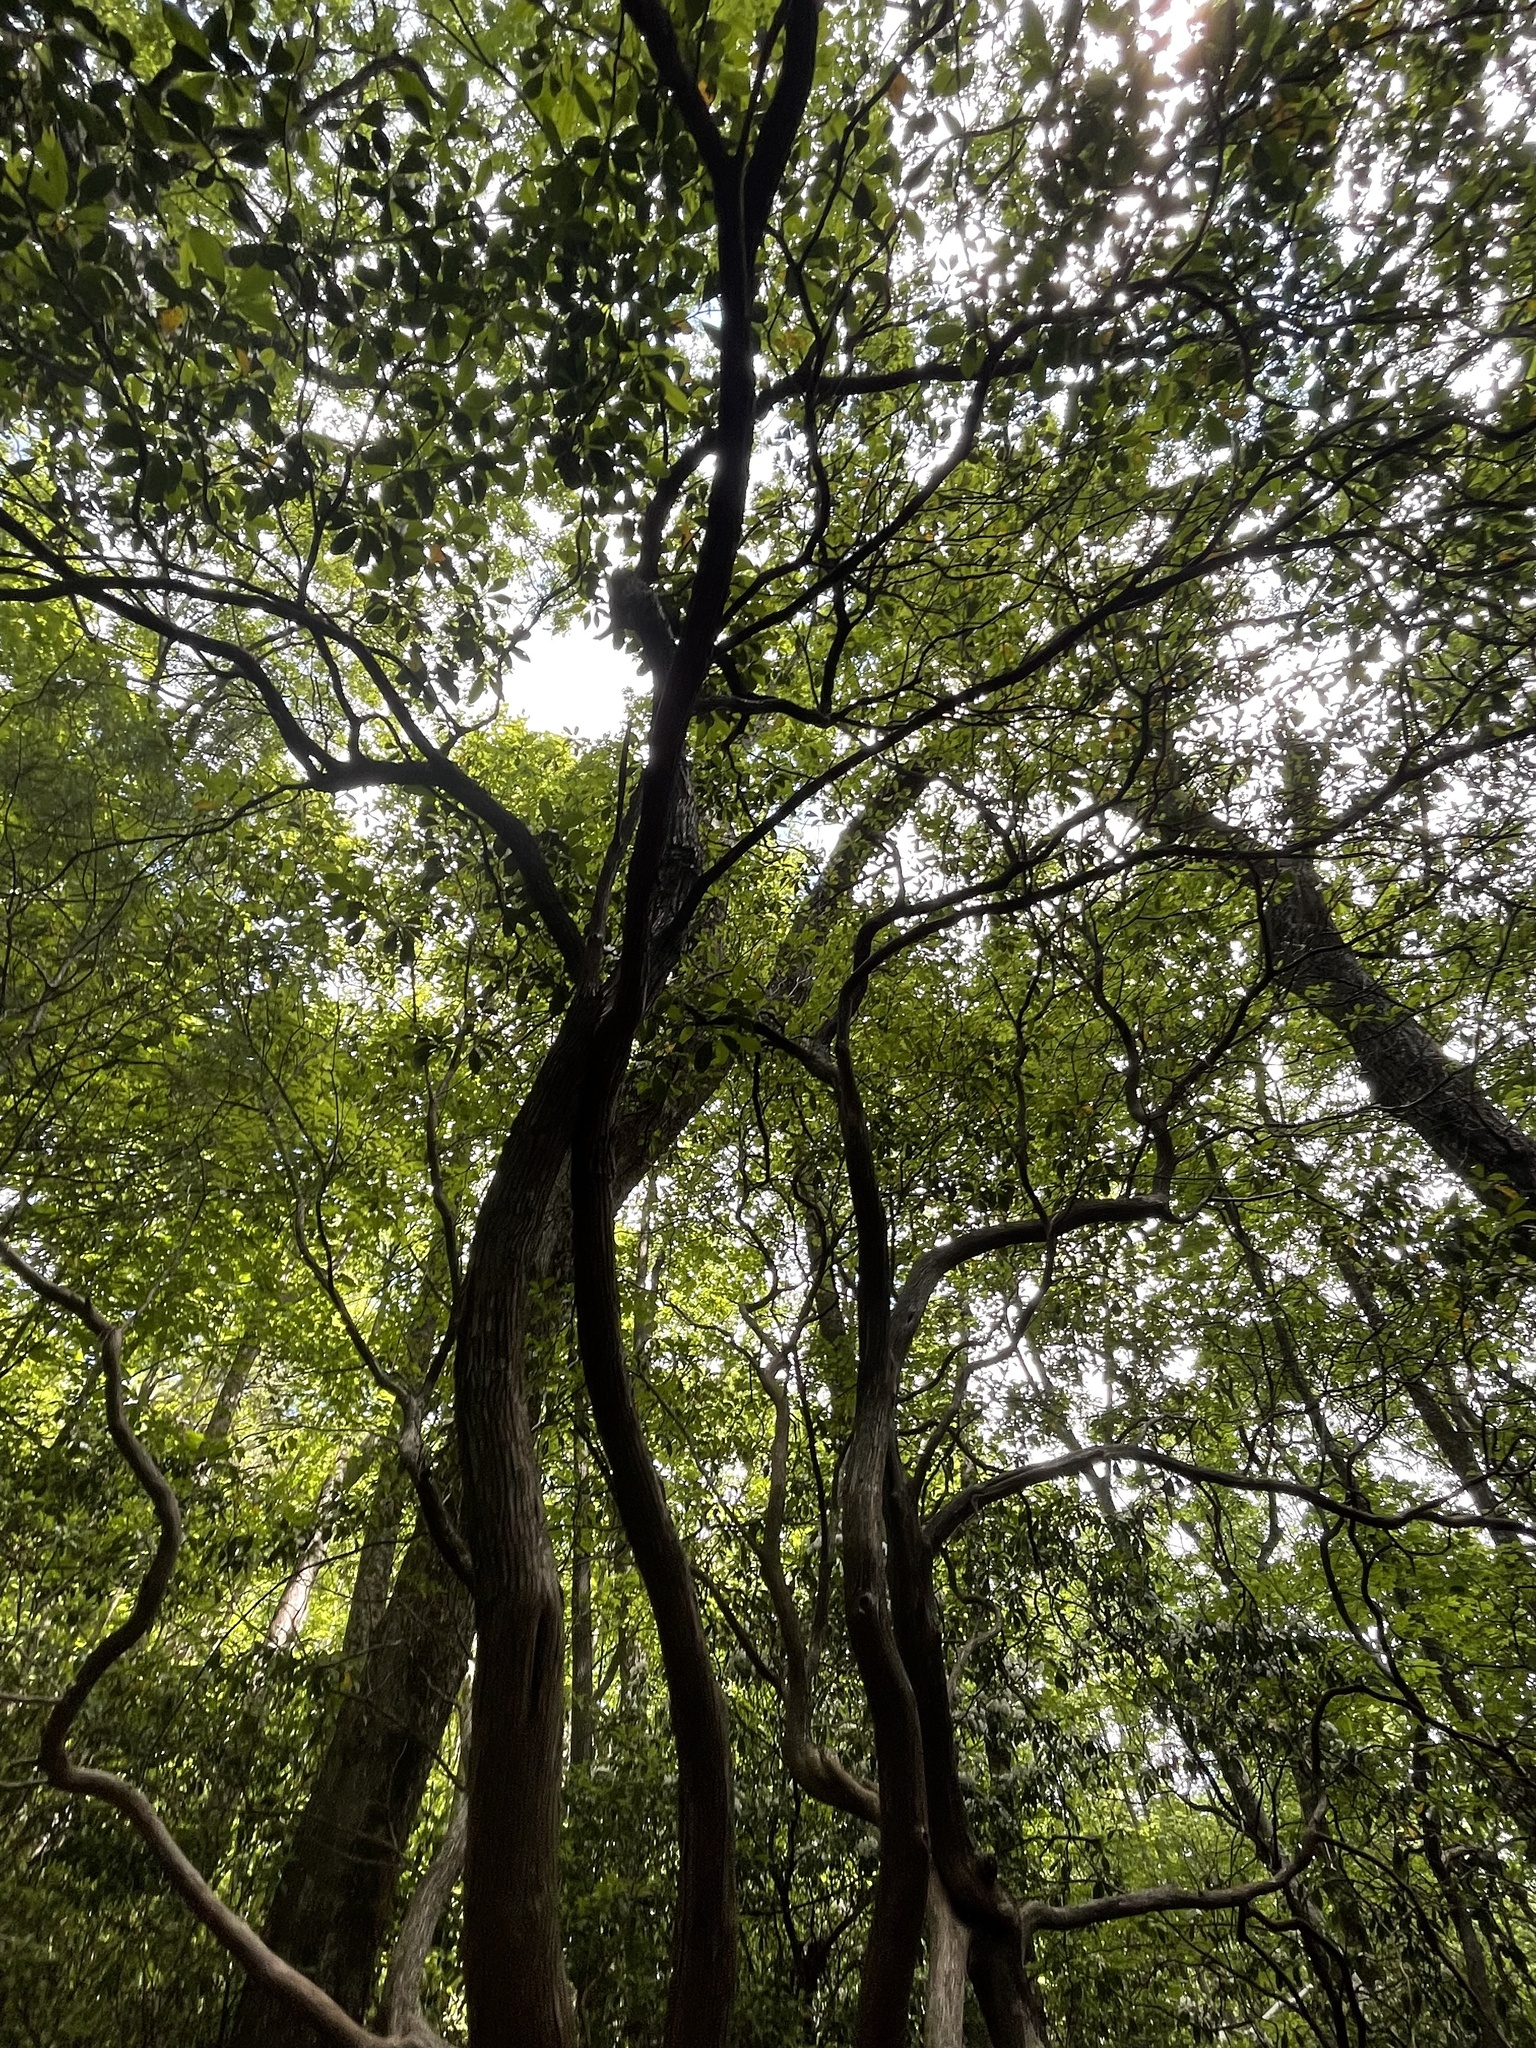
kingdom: Plantae
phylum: Tracheophyta
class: Magnoliopsida
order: Ericales
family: Ericaceae
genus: Kalmia
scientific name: Kalmia latifolia
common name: Mountain-laurel
